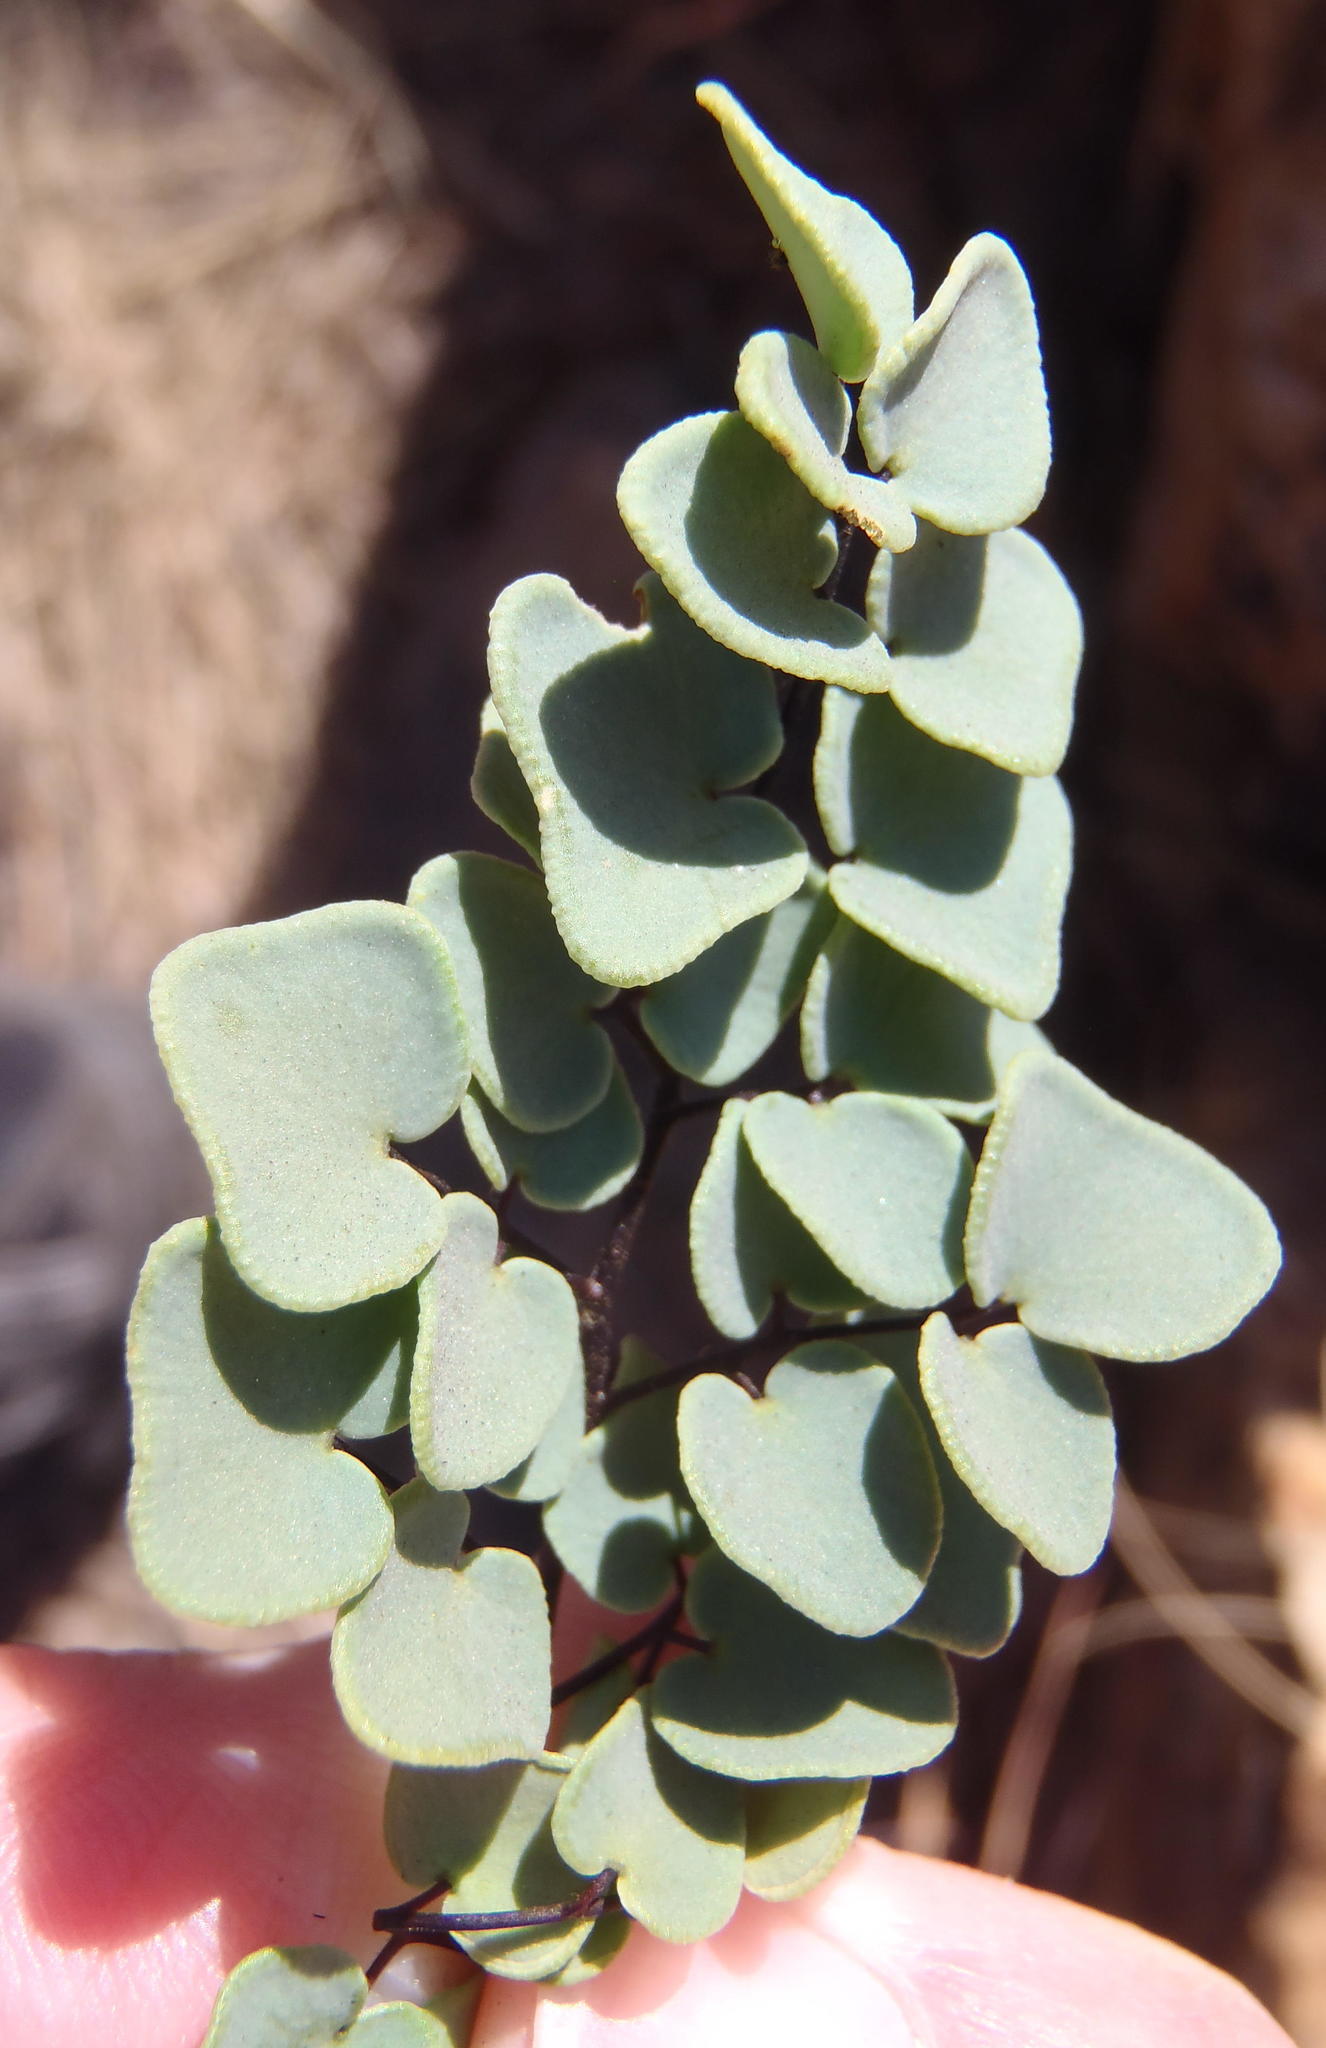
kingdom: Plantae
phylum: Tracheophyta
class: Polypodiopsida
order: Polypodiales
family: Pteridaceae
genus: Pellaea
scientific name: Pellaea calomelanos
